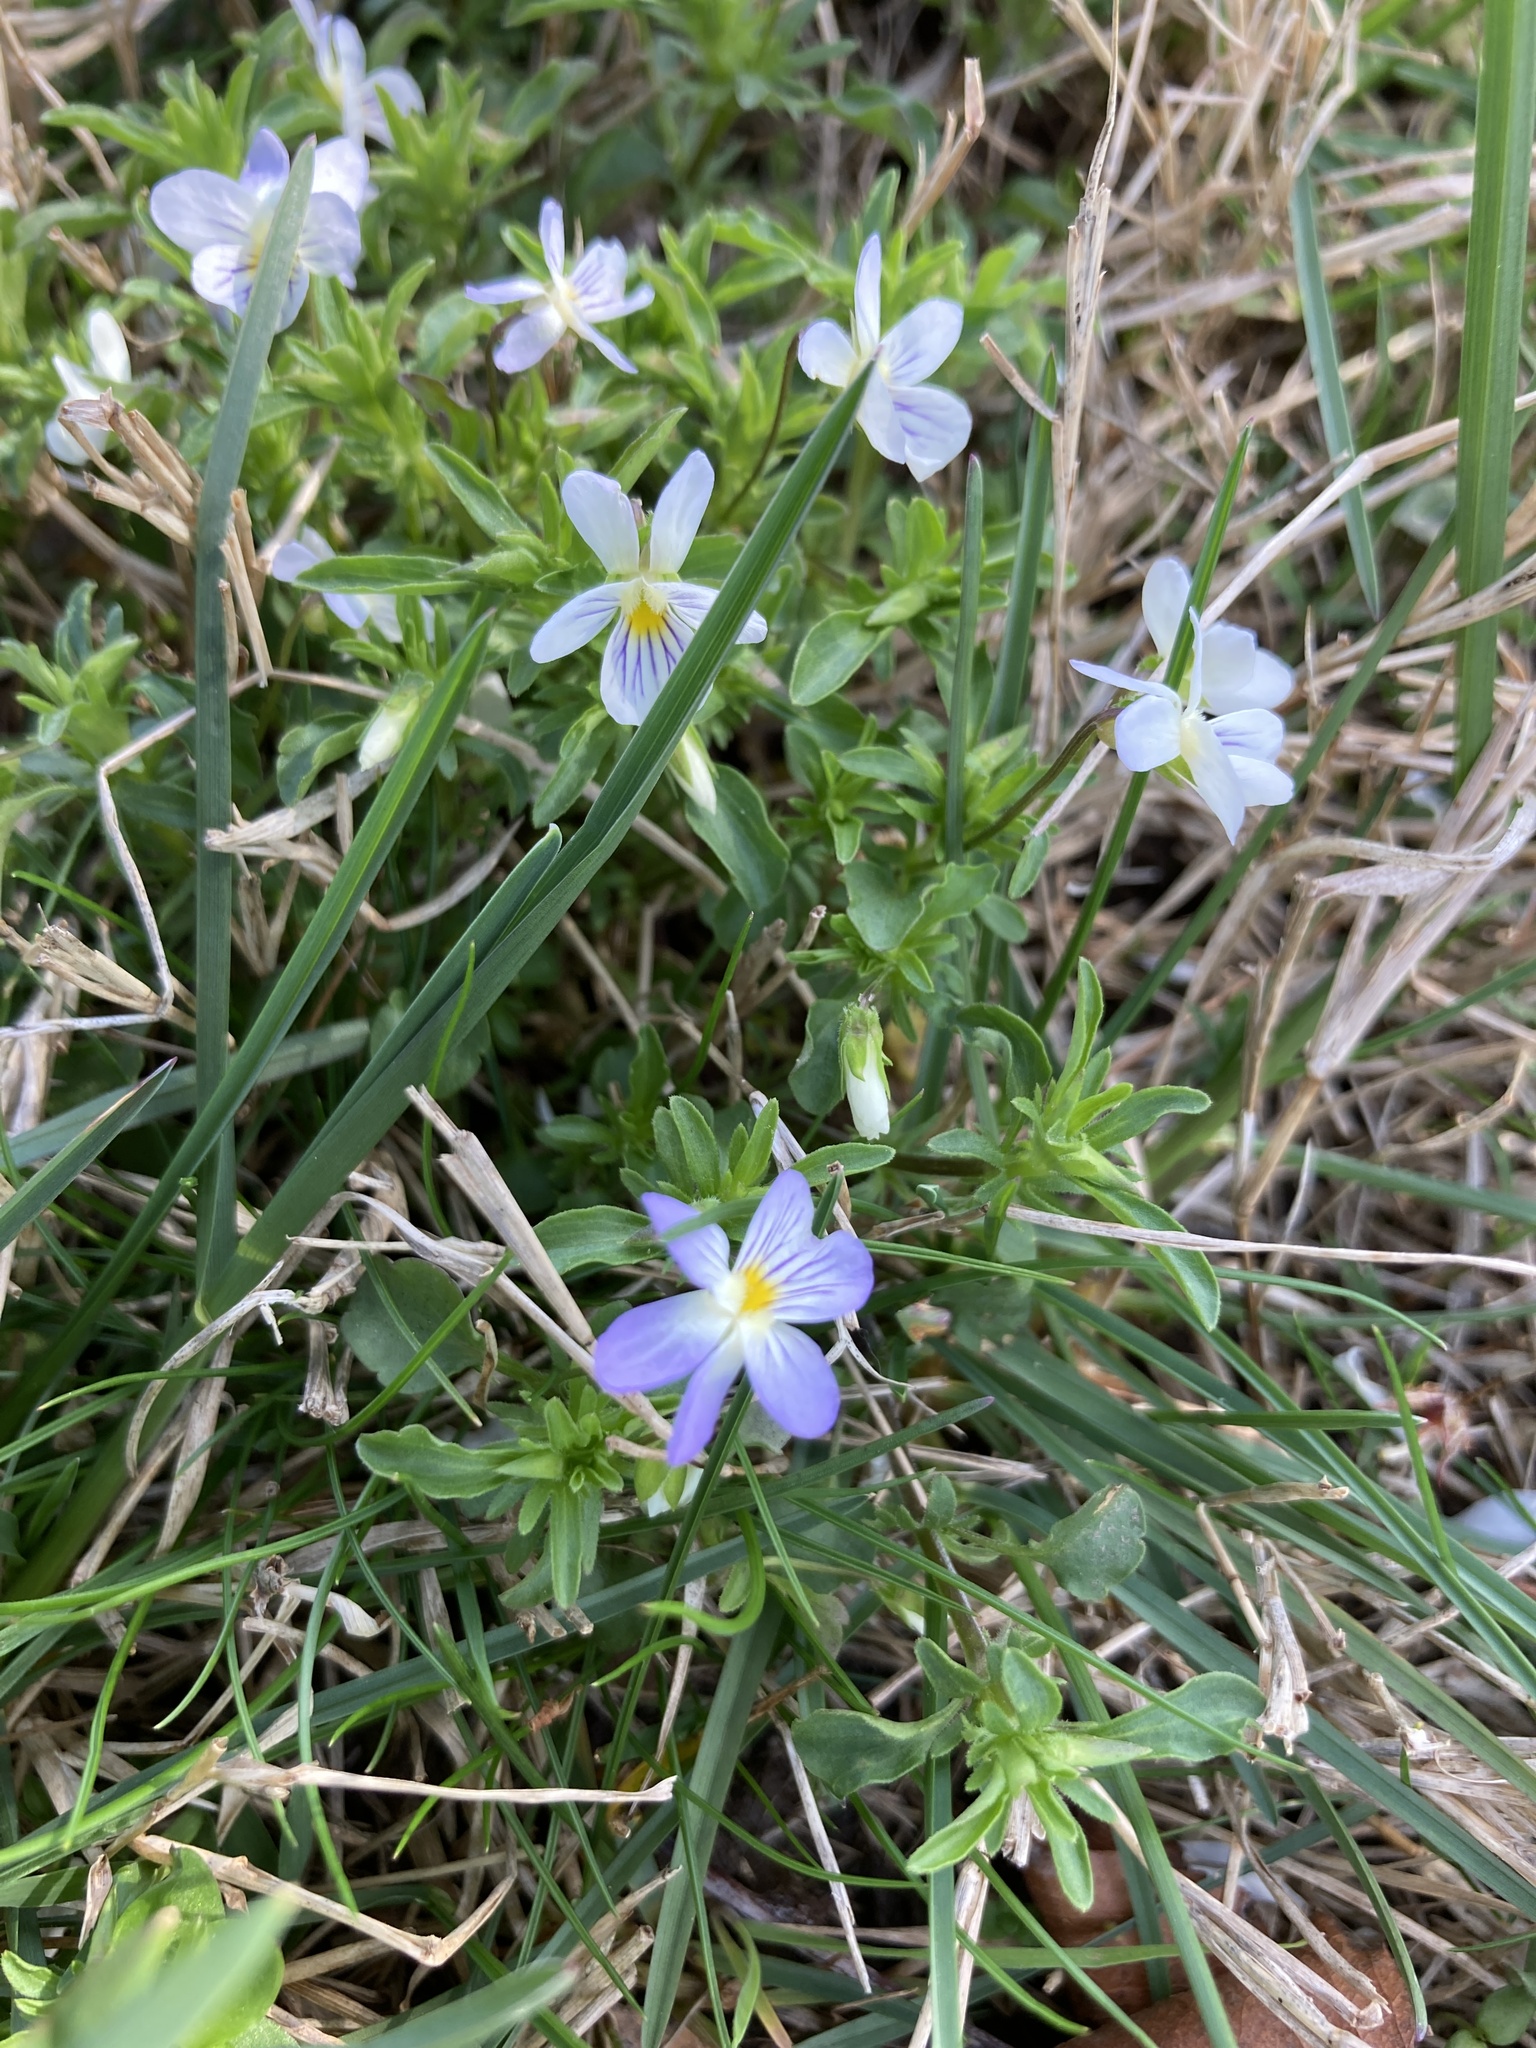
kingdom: Plantae
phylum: Tracheophyta
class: Magnoliopsida
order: Malpighiales
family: Violaceae
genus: Viola
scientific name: Viola rafinesquei
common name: American field pansy
